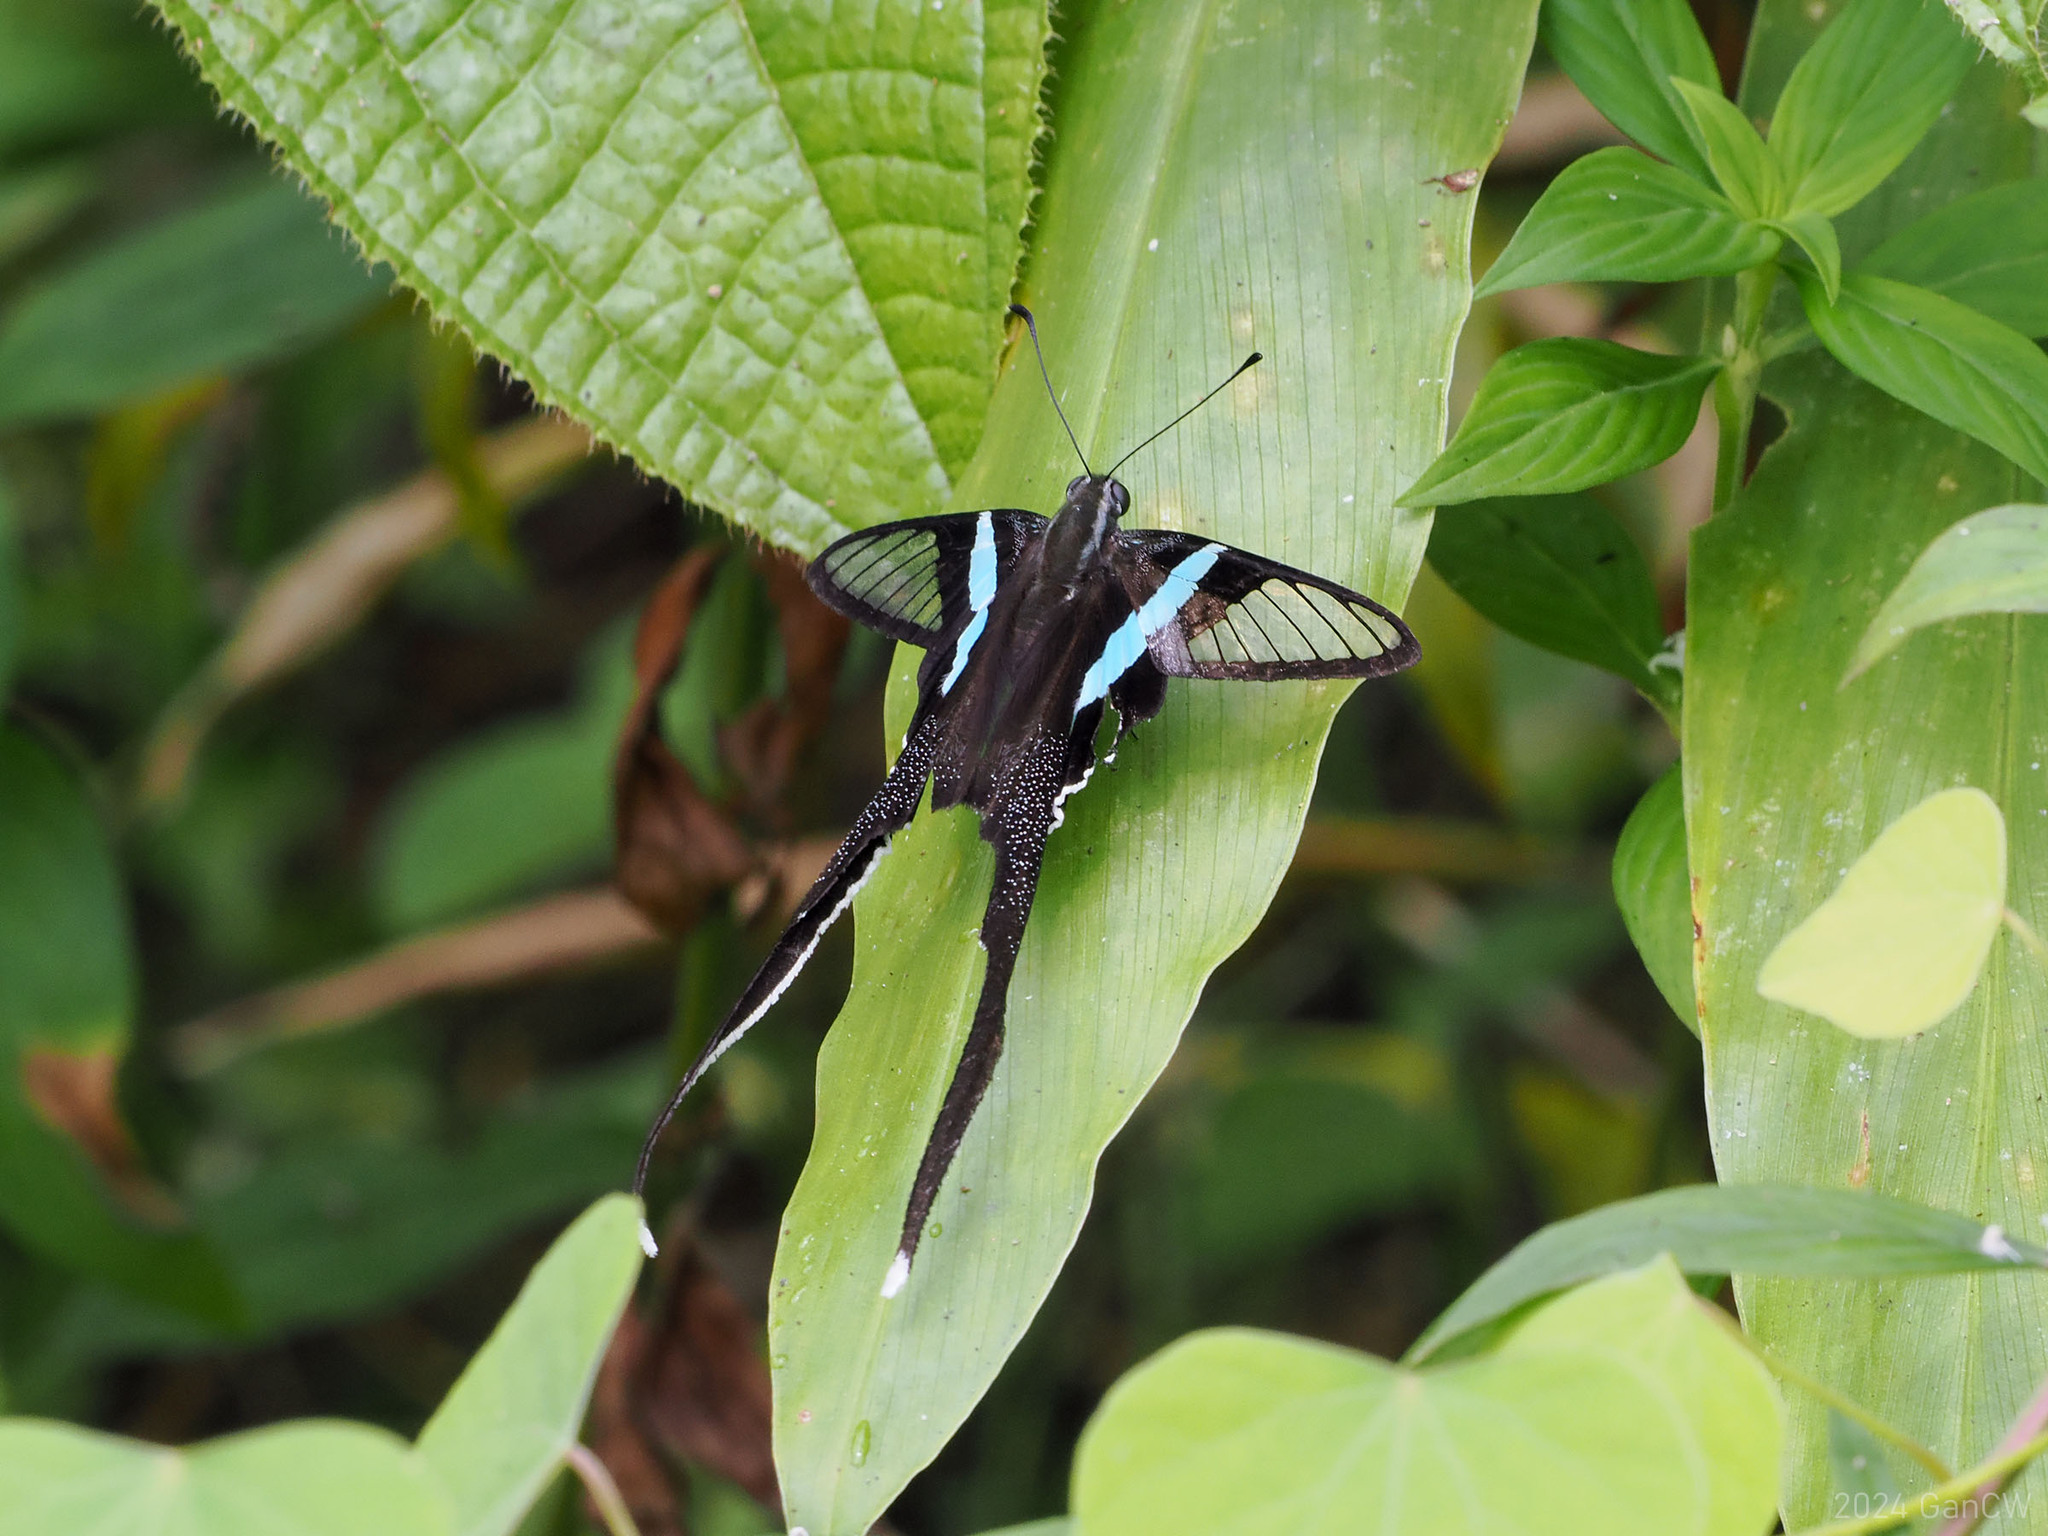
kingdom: Animalia
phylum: Arthropoda
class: Insecta
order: Lepidoptera
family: Papilionidae
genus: Lamproptera
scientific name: Lamproptera meges
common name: Green dragontail
